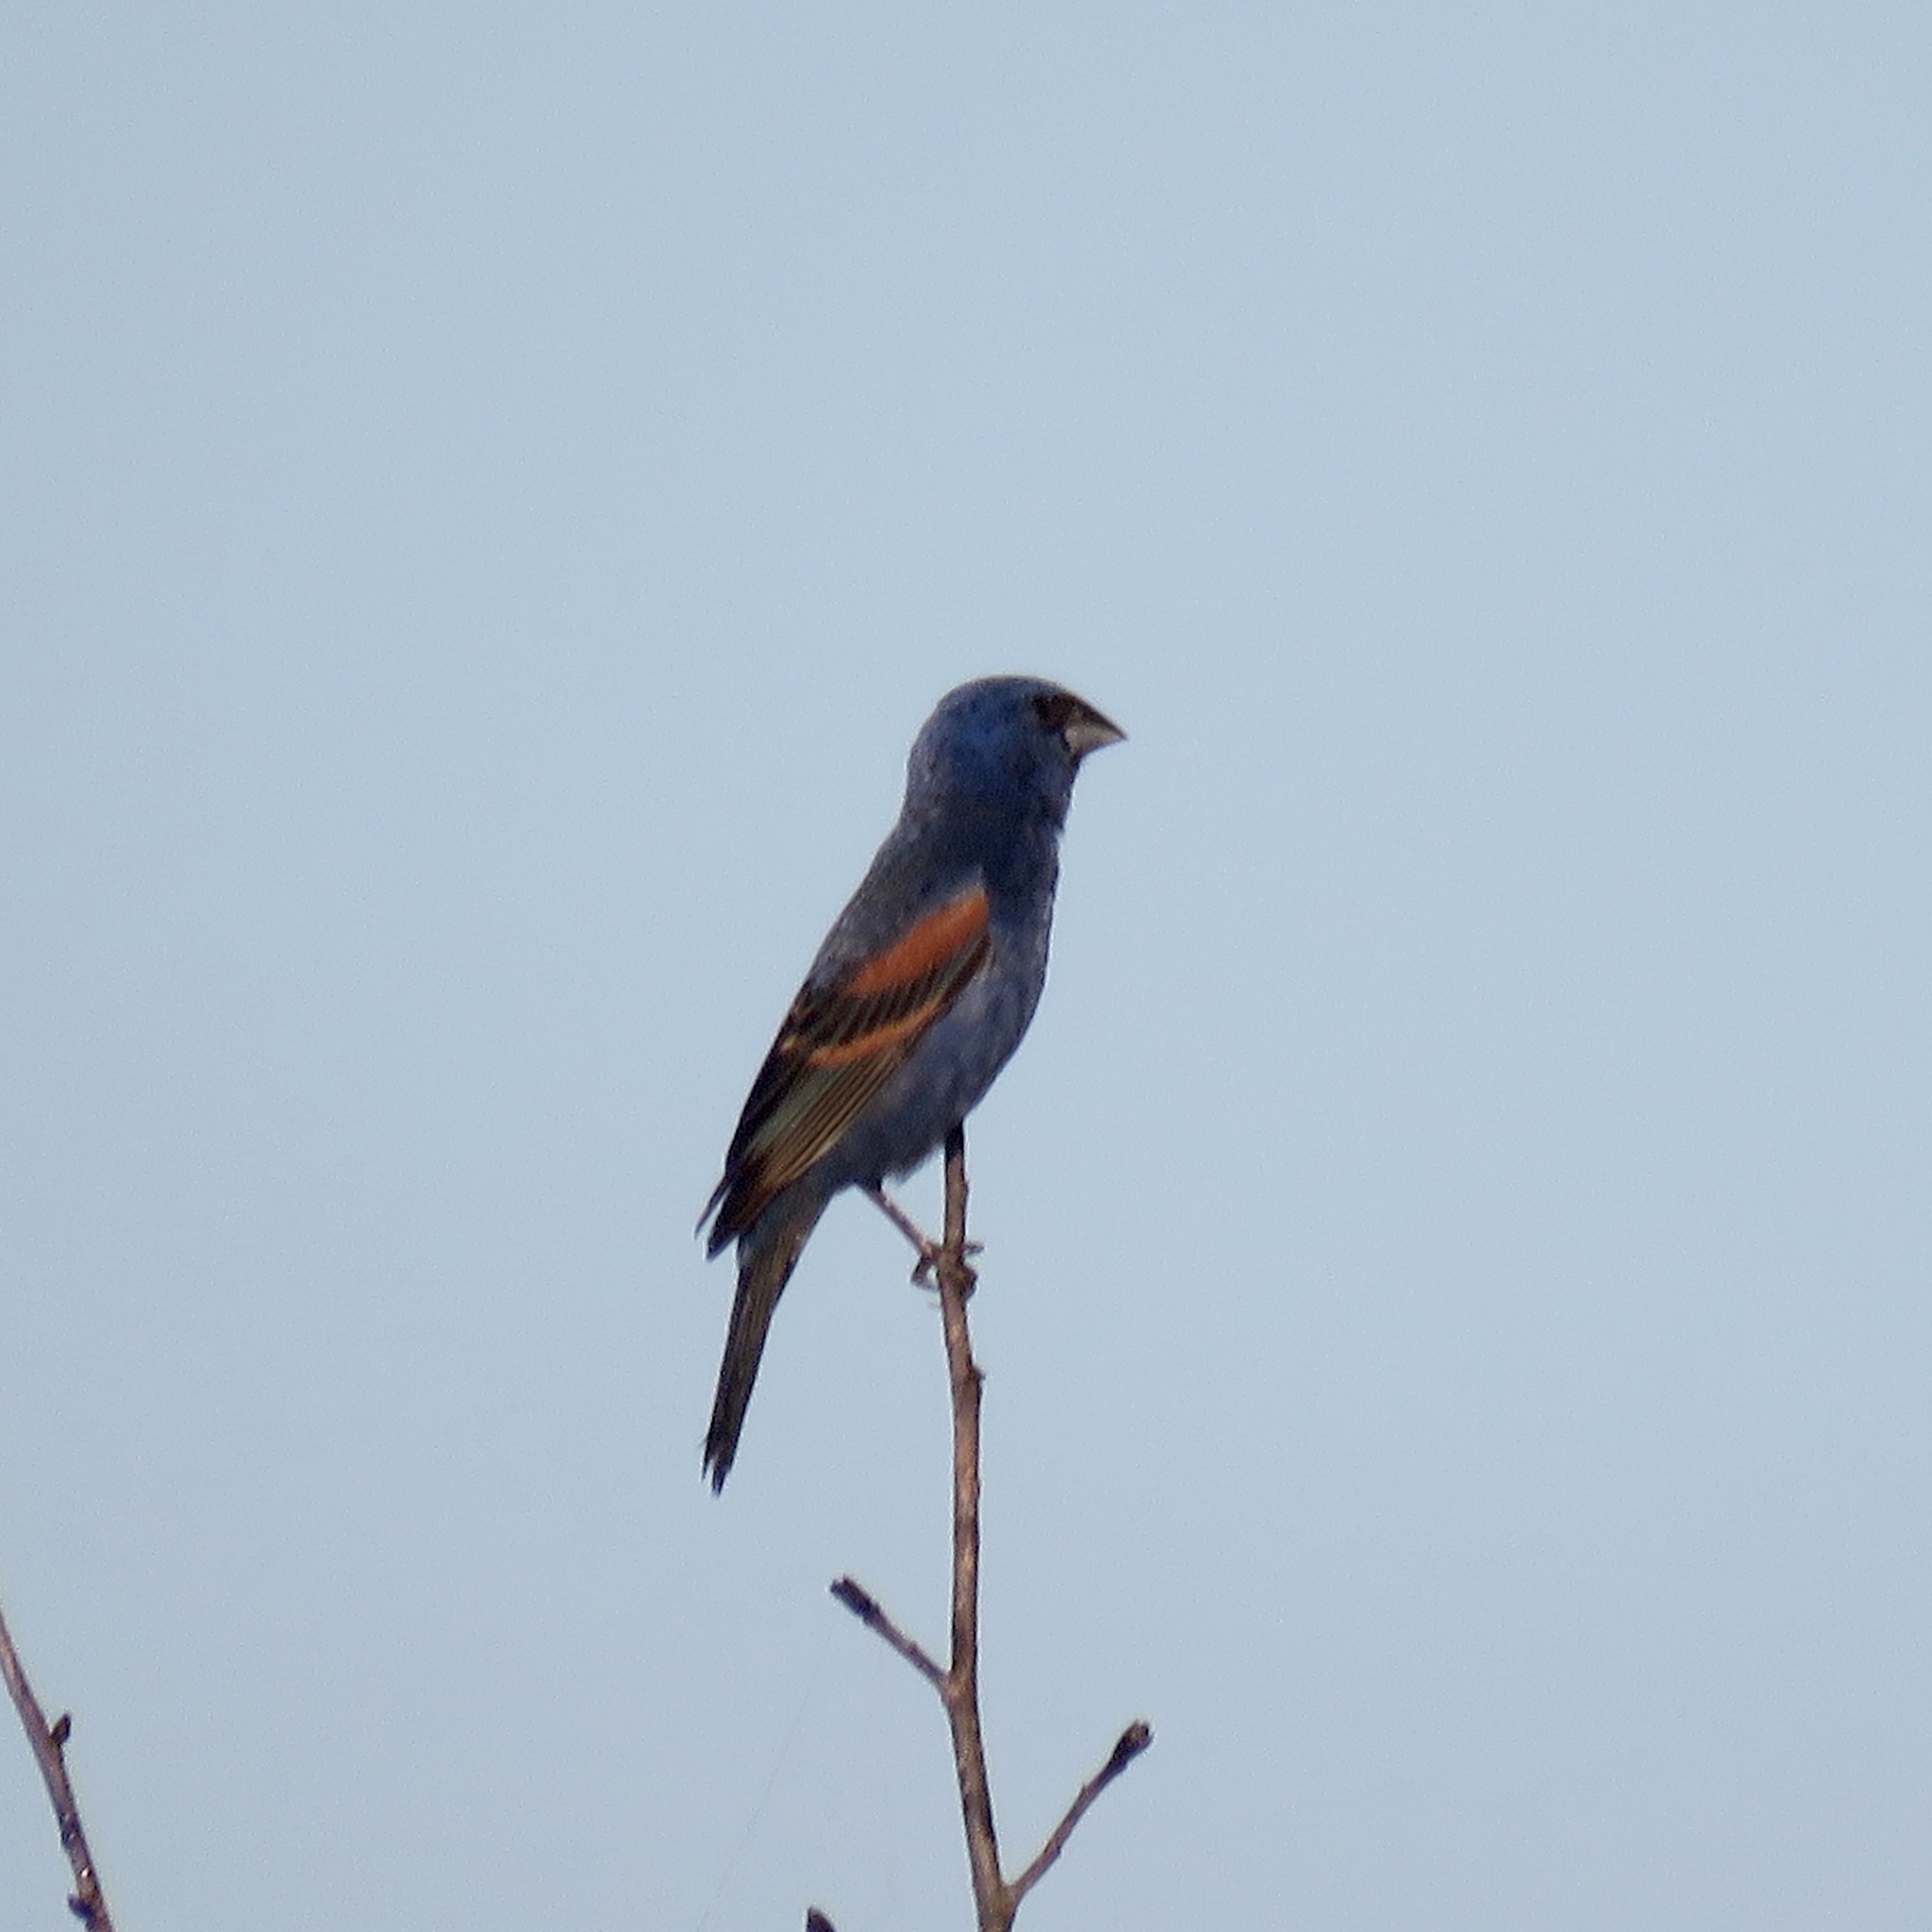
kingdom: Animalia
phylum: Chordata
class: Aves
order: Passeriformes
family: Cardinalidae
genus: Passerina
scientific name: Passerina caerulea
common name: Blue grosbeak
